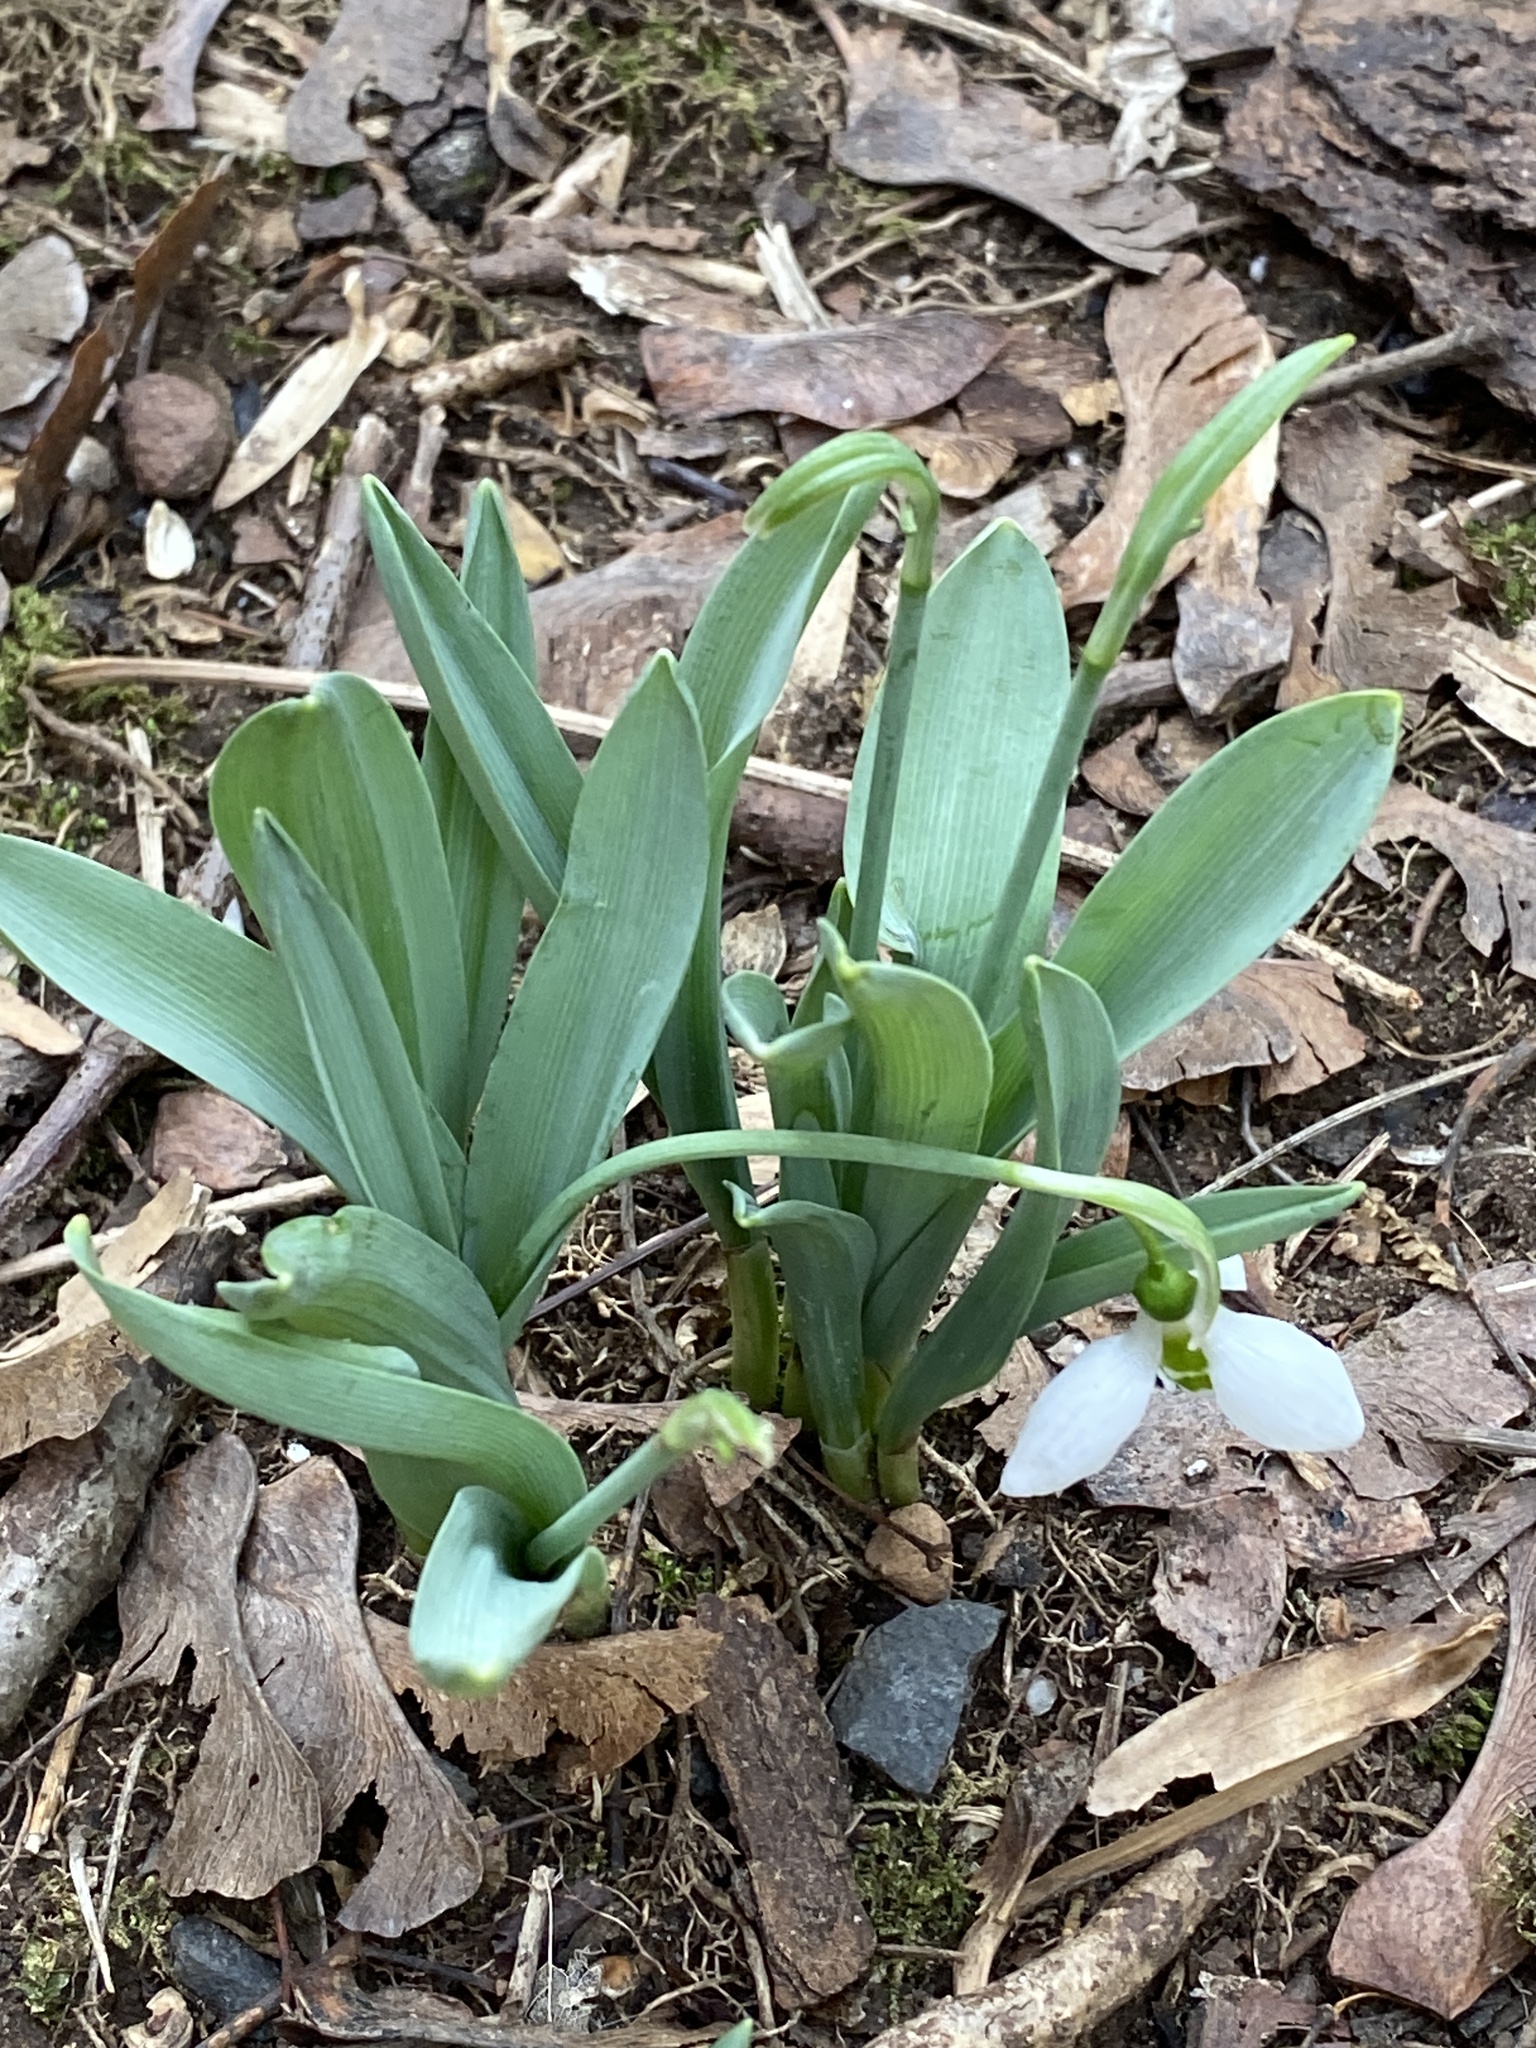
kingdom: Plantae
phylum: Tracheophyta
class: Liliopsida
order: Asparagales
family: Amaryllidaceae
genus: Galanthus
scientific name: Galanthus elwesii
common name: Greater snowdrop
